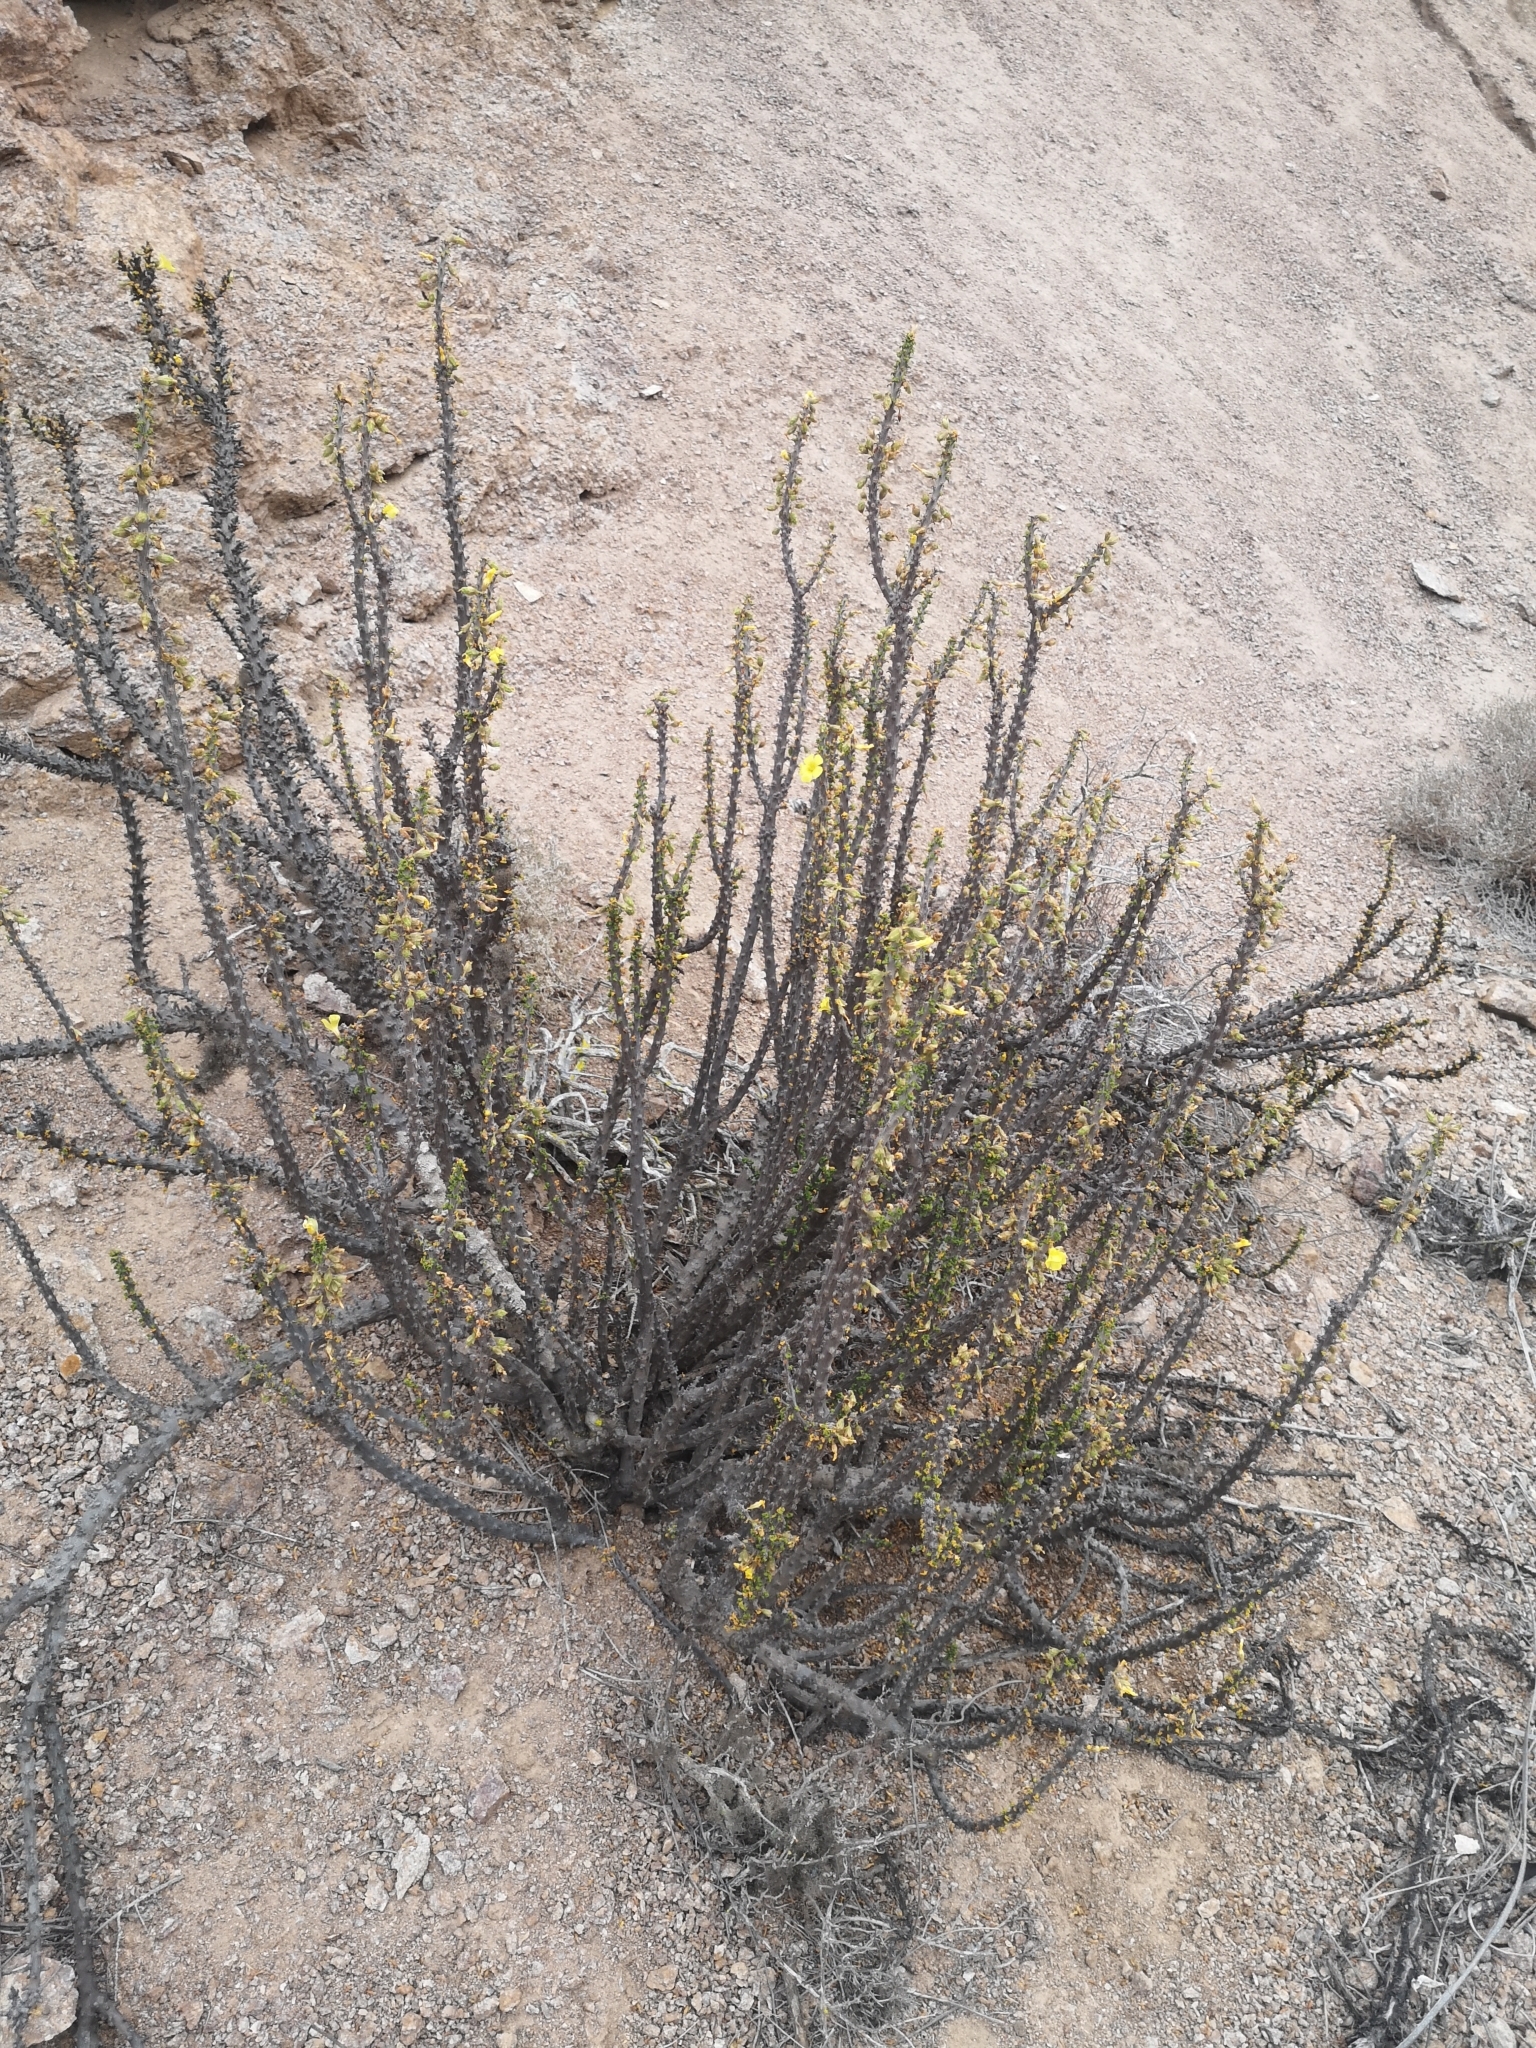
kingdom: Plantae
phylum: Tracheophyta
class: Magnoliopsida
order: Oxalidales
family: Oxalidaceae
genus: Oxalis
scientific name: Oxalis gigantea
